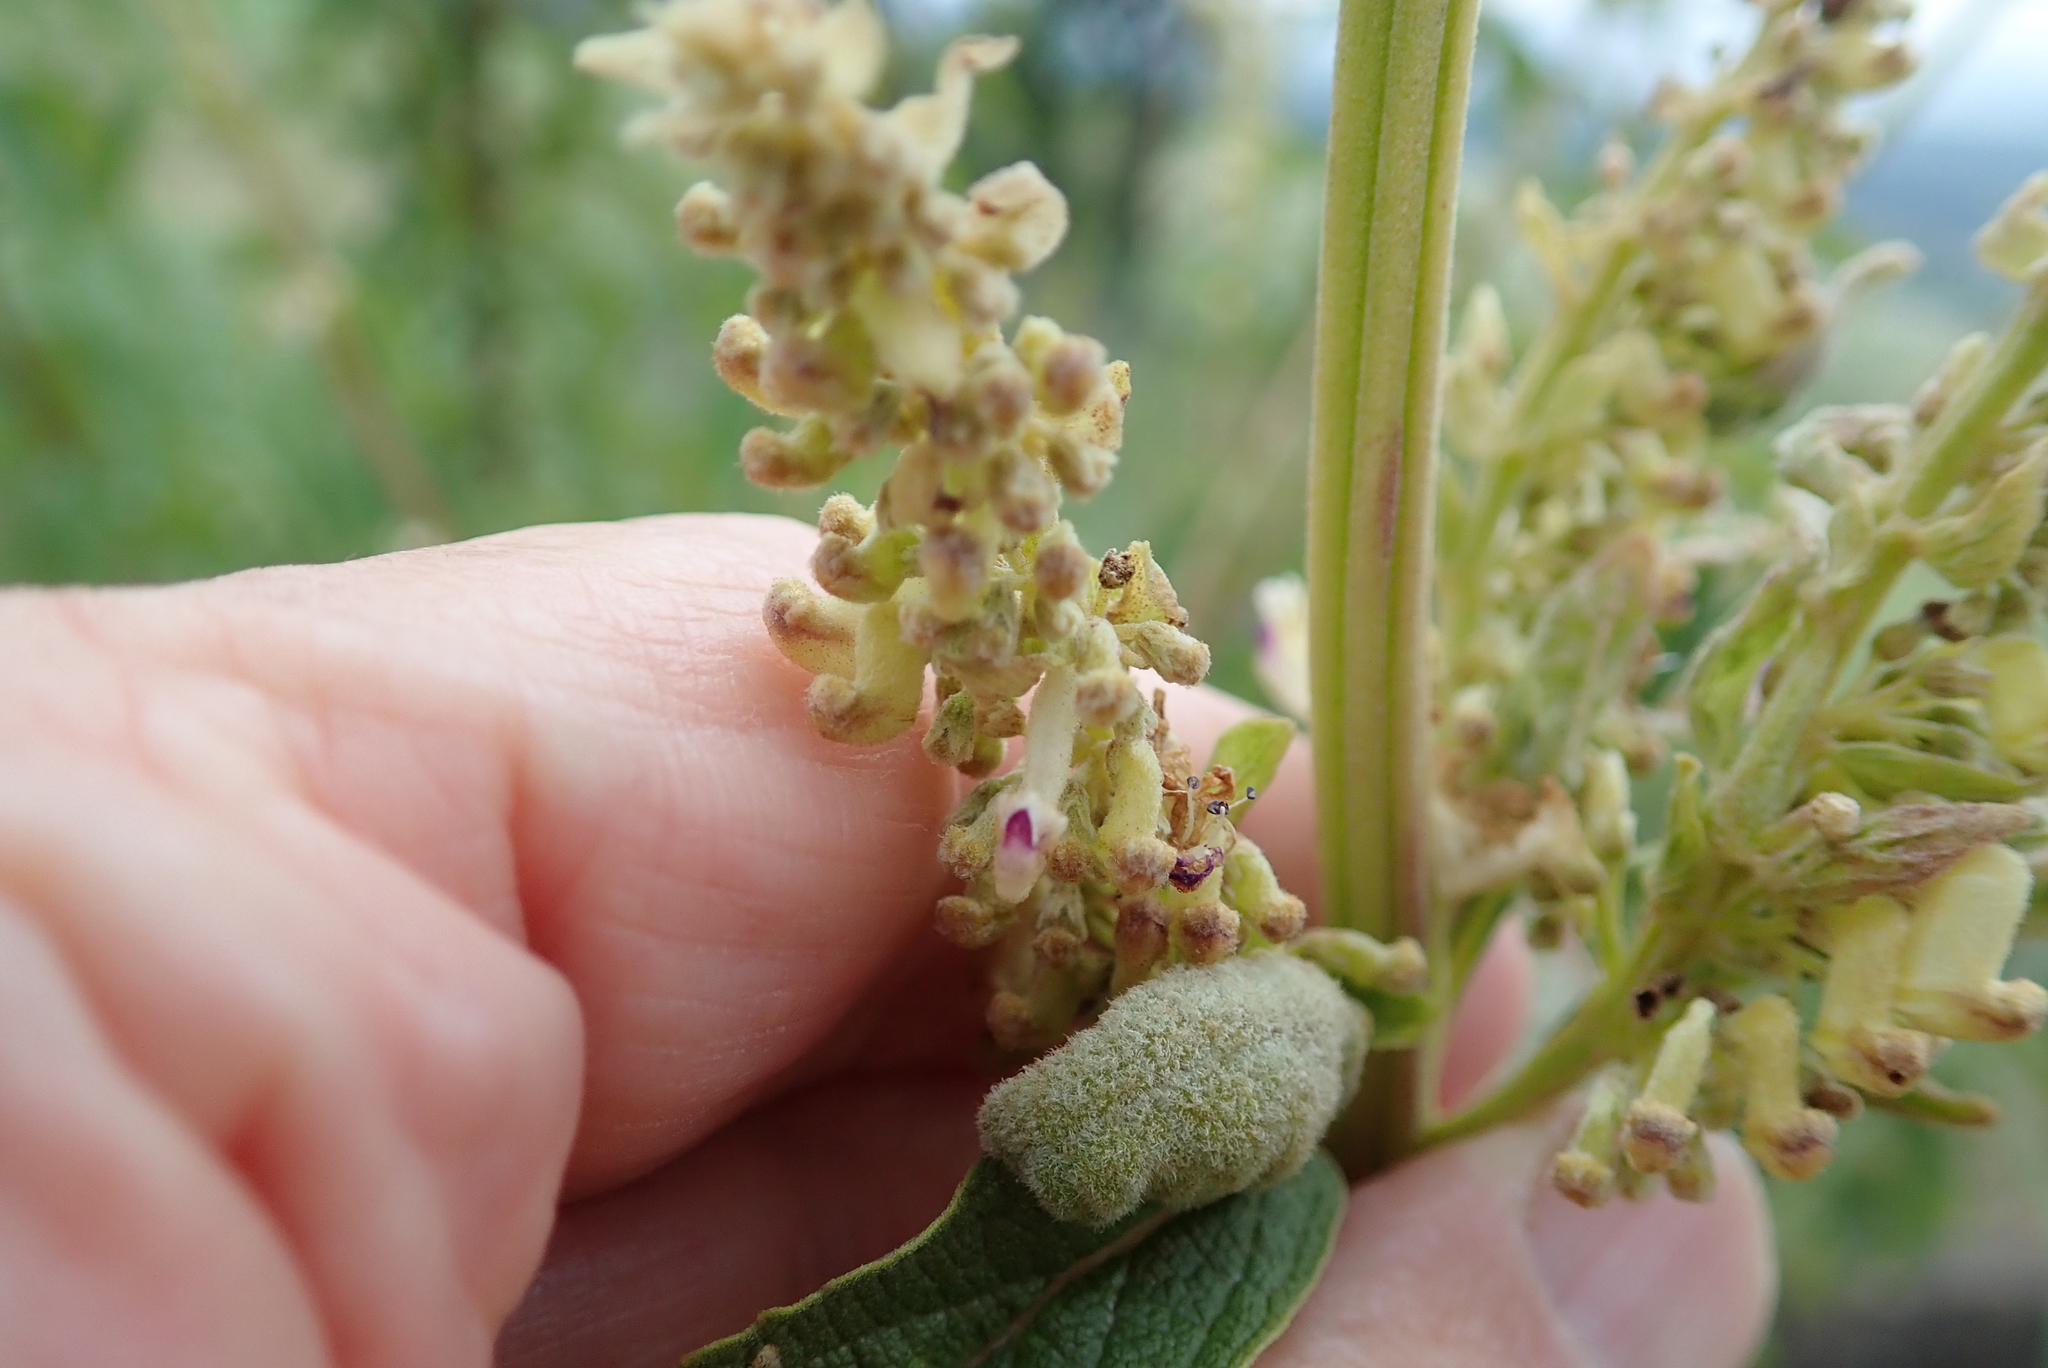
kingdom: Plantae
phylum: Tracheophyta
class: Magnoliopsida
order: Lamiales
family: Lamiaceae
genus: Coleus
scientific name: Coleus calycinus
